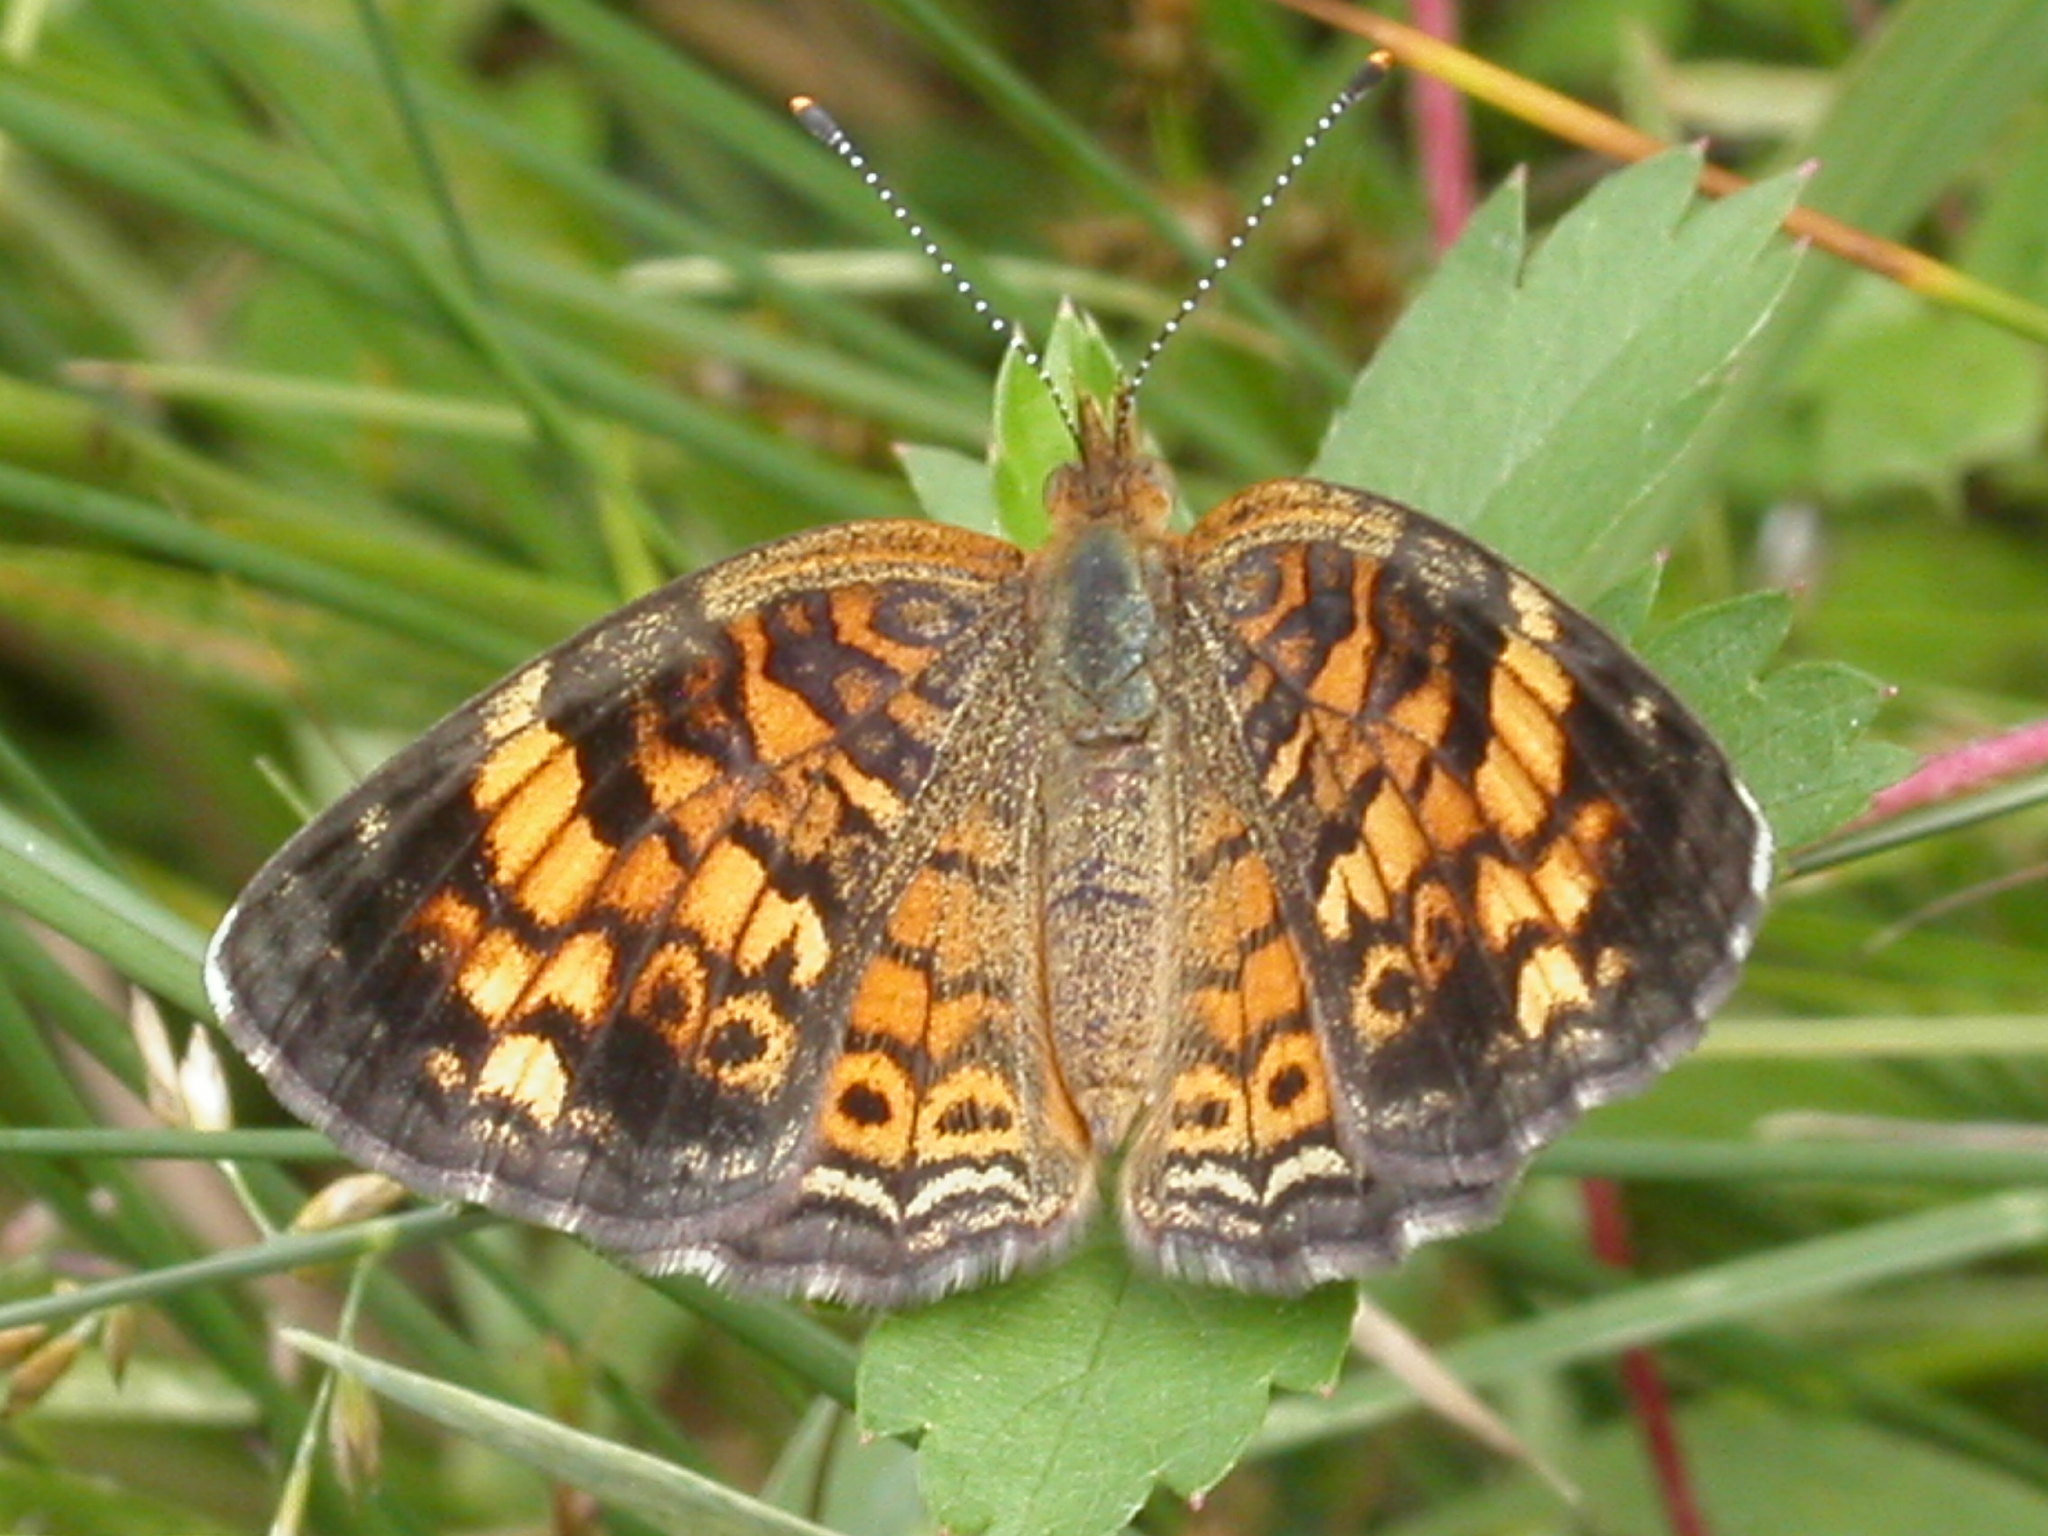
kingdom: Animalia
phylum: Arthropoda
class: Insecta
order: Lepidoptera
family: Nymphalidae
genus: Phyciodes
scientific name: Phyciodes tharos
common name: Pearl crescent
